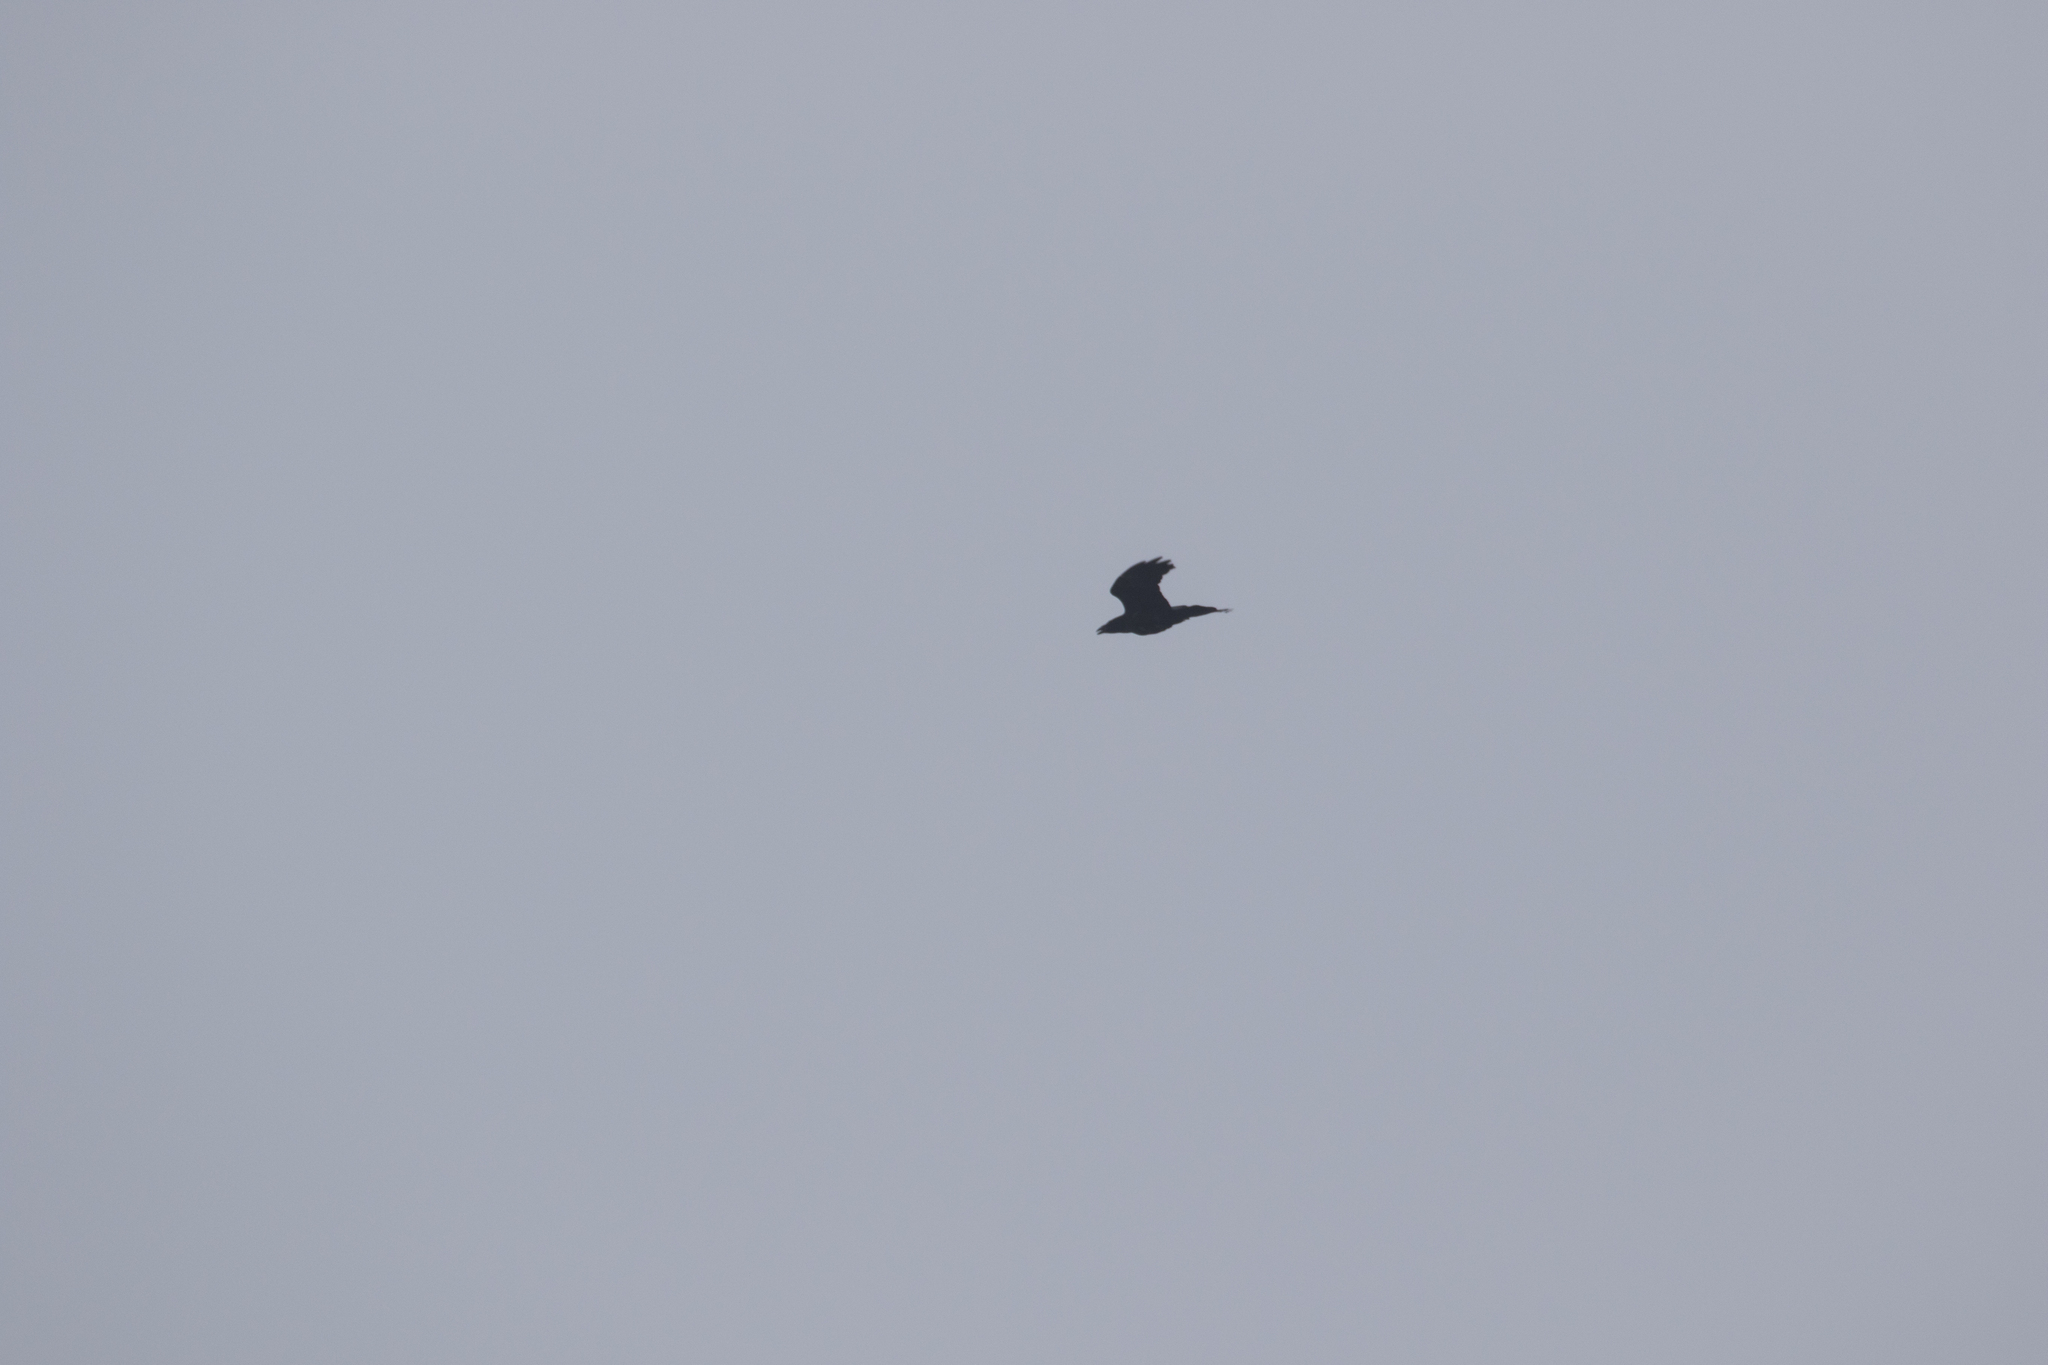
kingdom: Animalia
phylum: Chordata
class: Aves
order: Passeriformes
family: Corvidae
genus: Corvus
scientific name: Corvus corax
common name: Common raven
